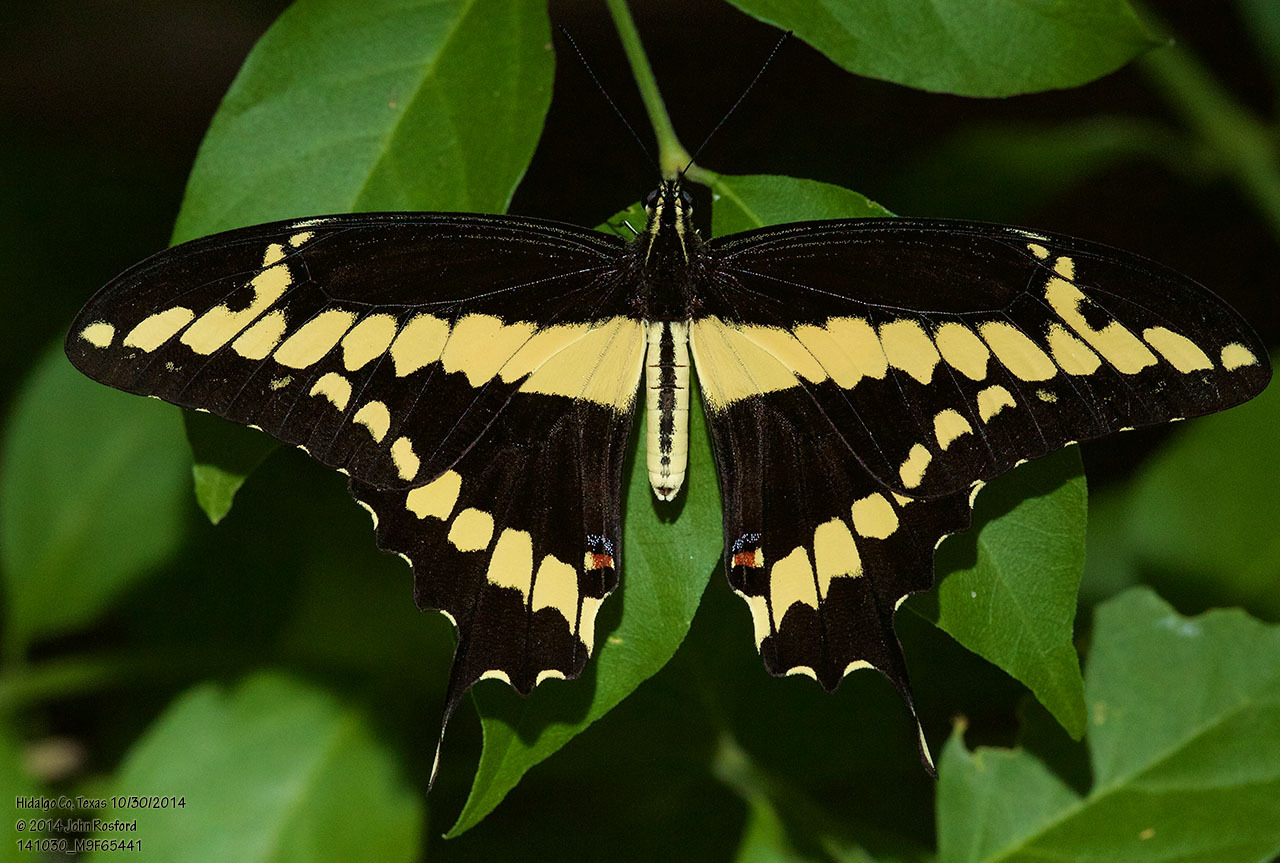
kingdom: Animalia
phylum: Arthropoda
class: Insecta
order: Lepidoptera
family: Papilionidae
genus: Papilio
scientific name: Papilio rumiko
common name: Western giant swallowtail
